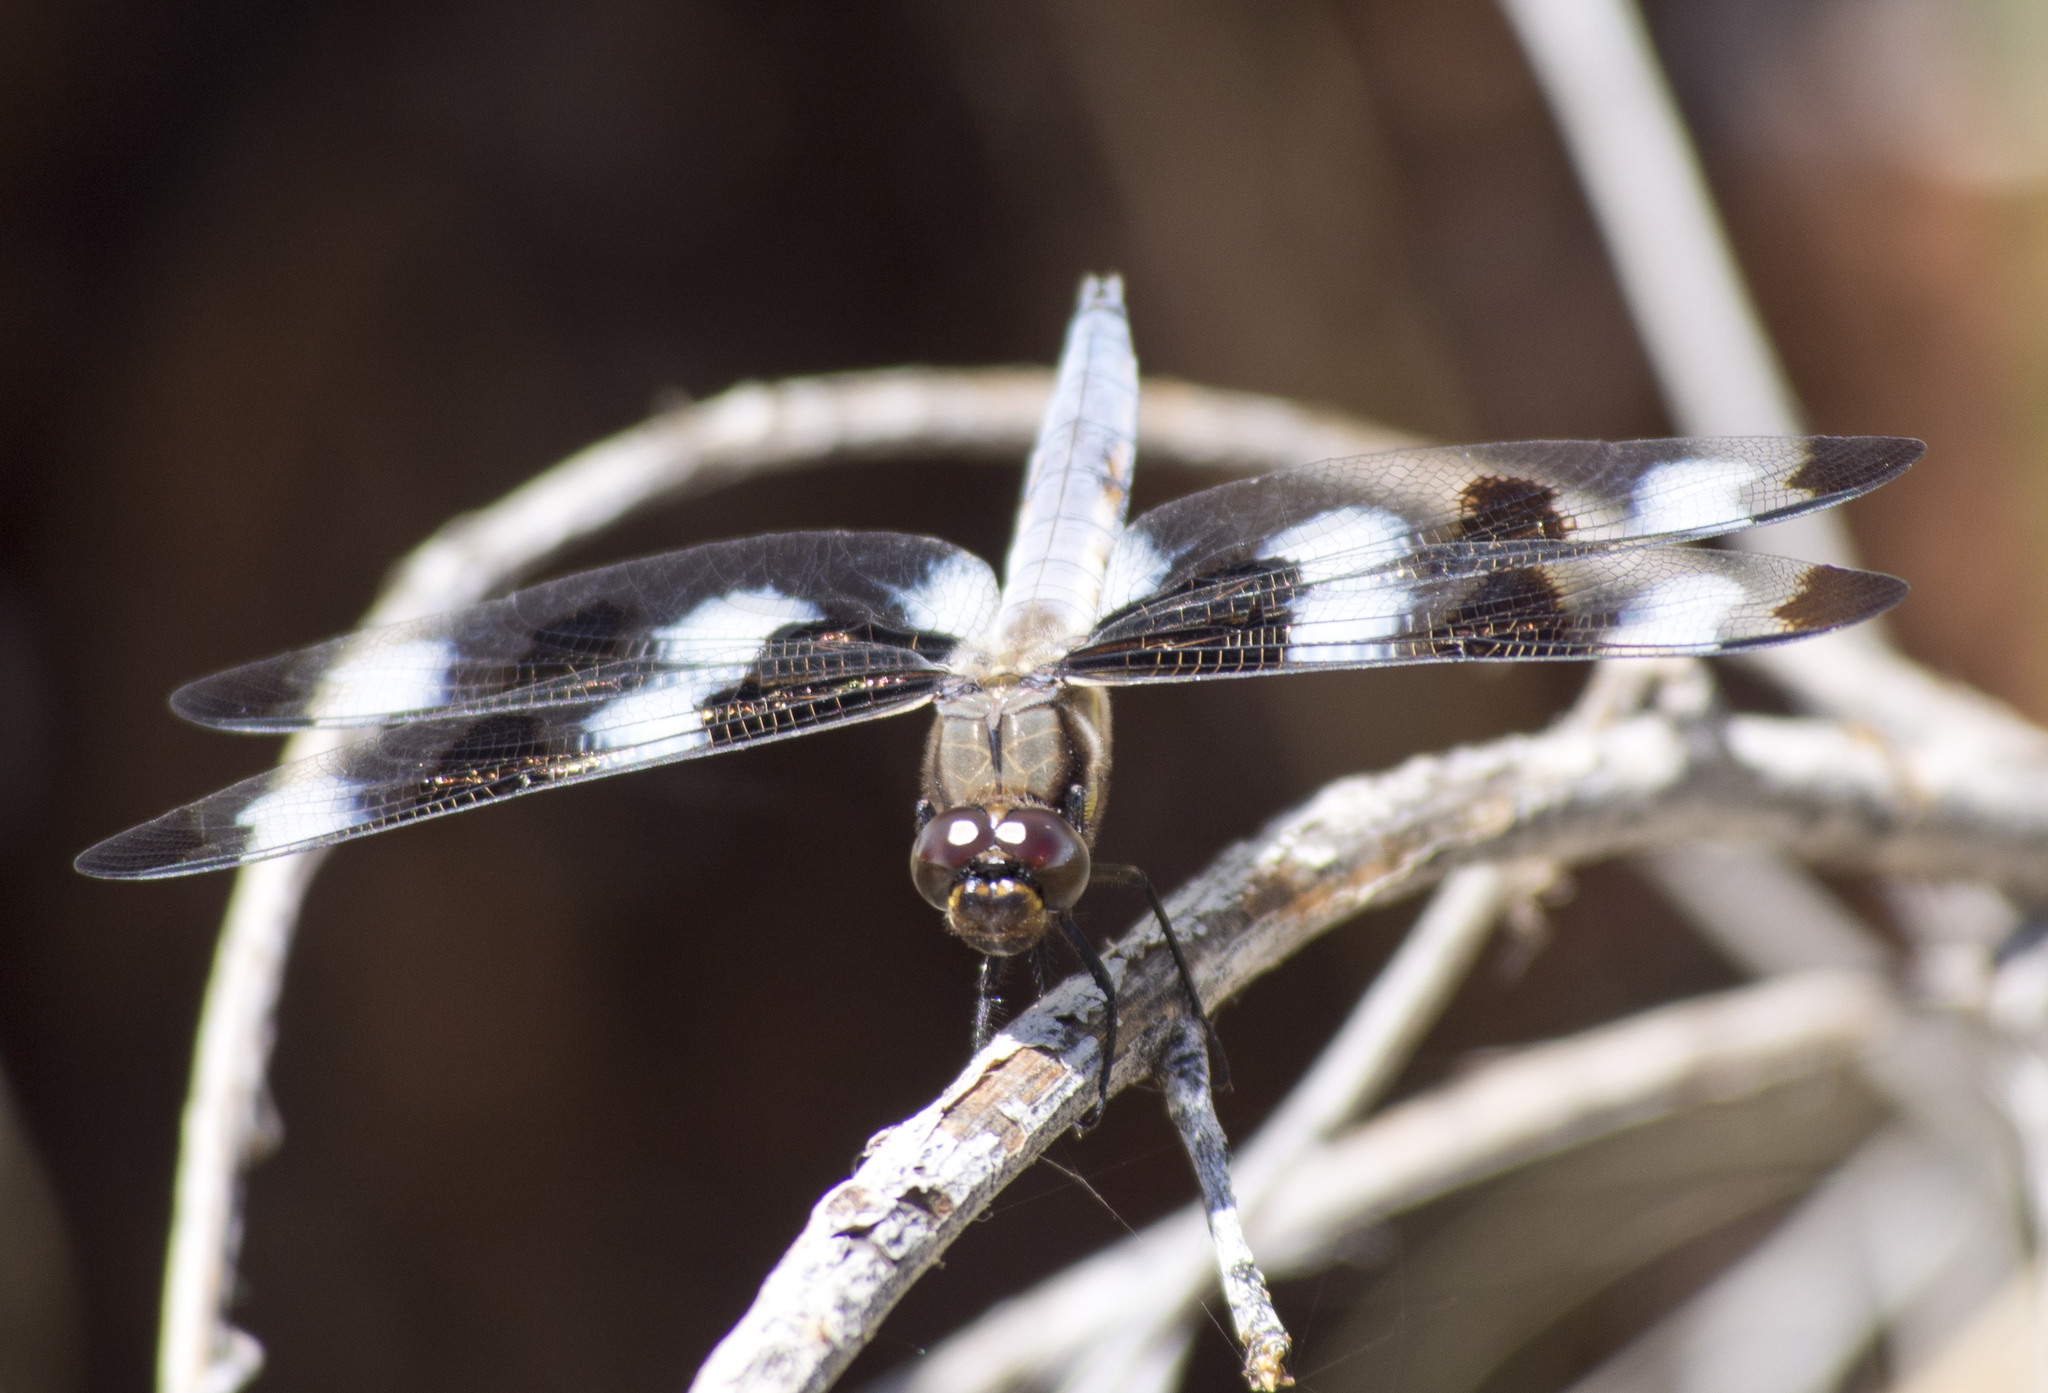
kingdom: Animalia
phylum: Arthropoda
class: Insecta
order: Odonata
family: Libellulidae
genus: Libellula
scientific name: Libellula pulchella
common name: Twelve-spotted skimmer
